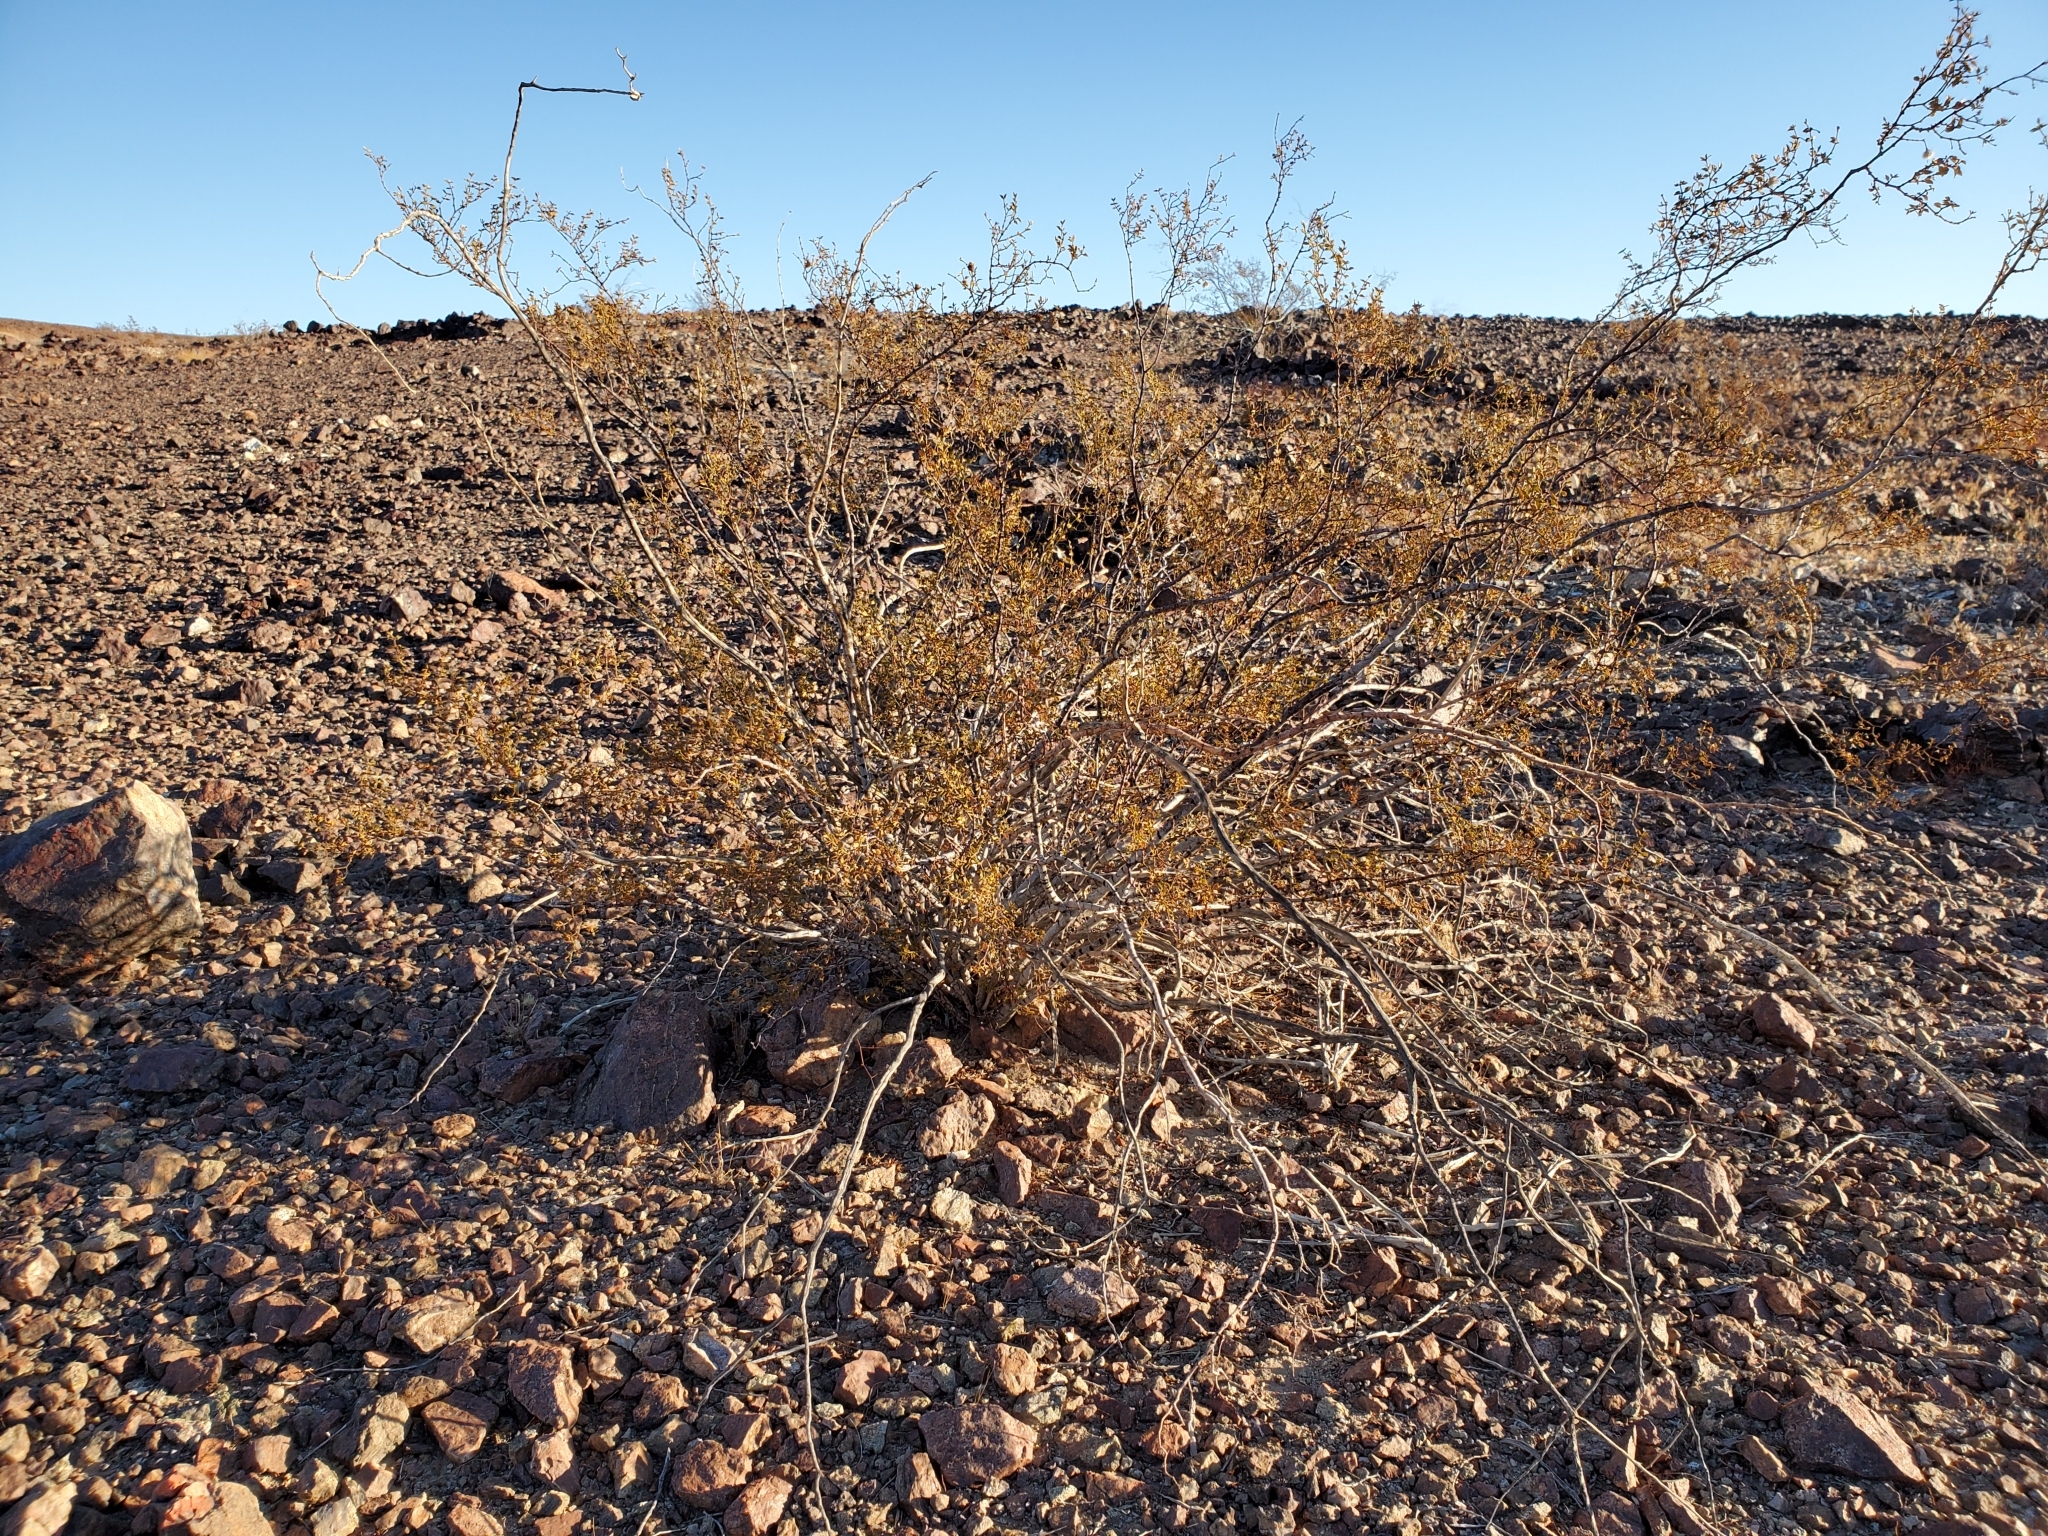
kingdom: Plantae
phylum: Tracheophyta
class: Magnoliopsida
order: Zygophyllales
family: Zygophyllaceae
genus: Larrea
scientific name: Larrea tridentata
